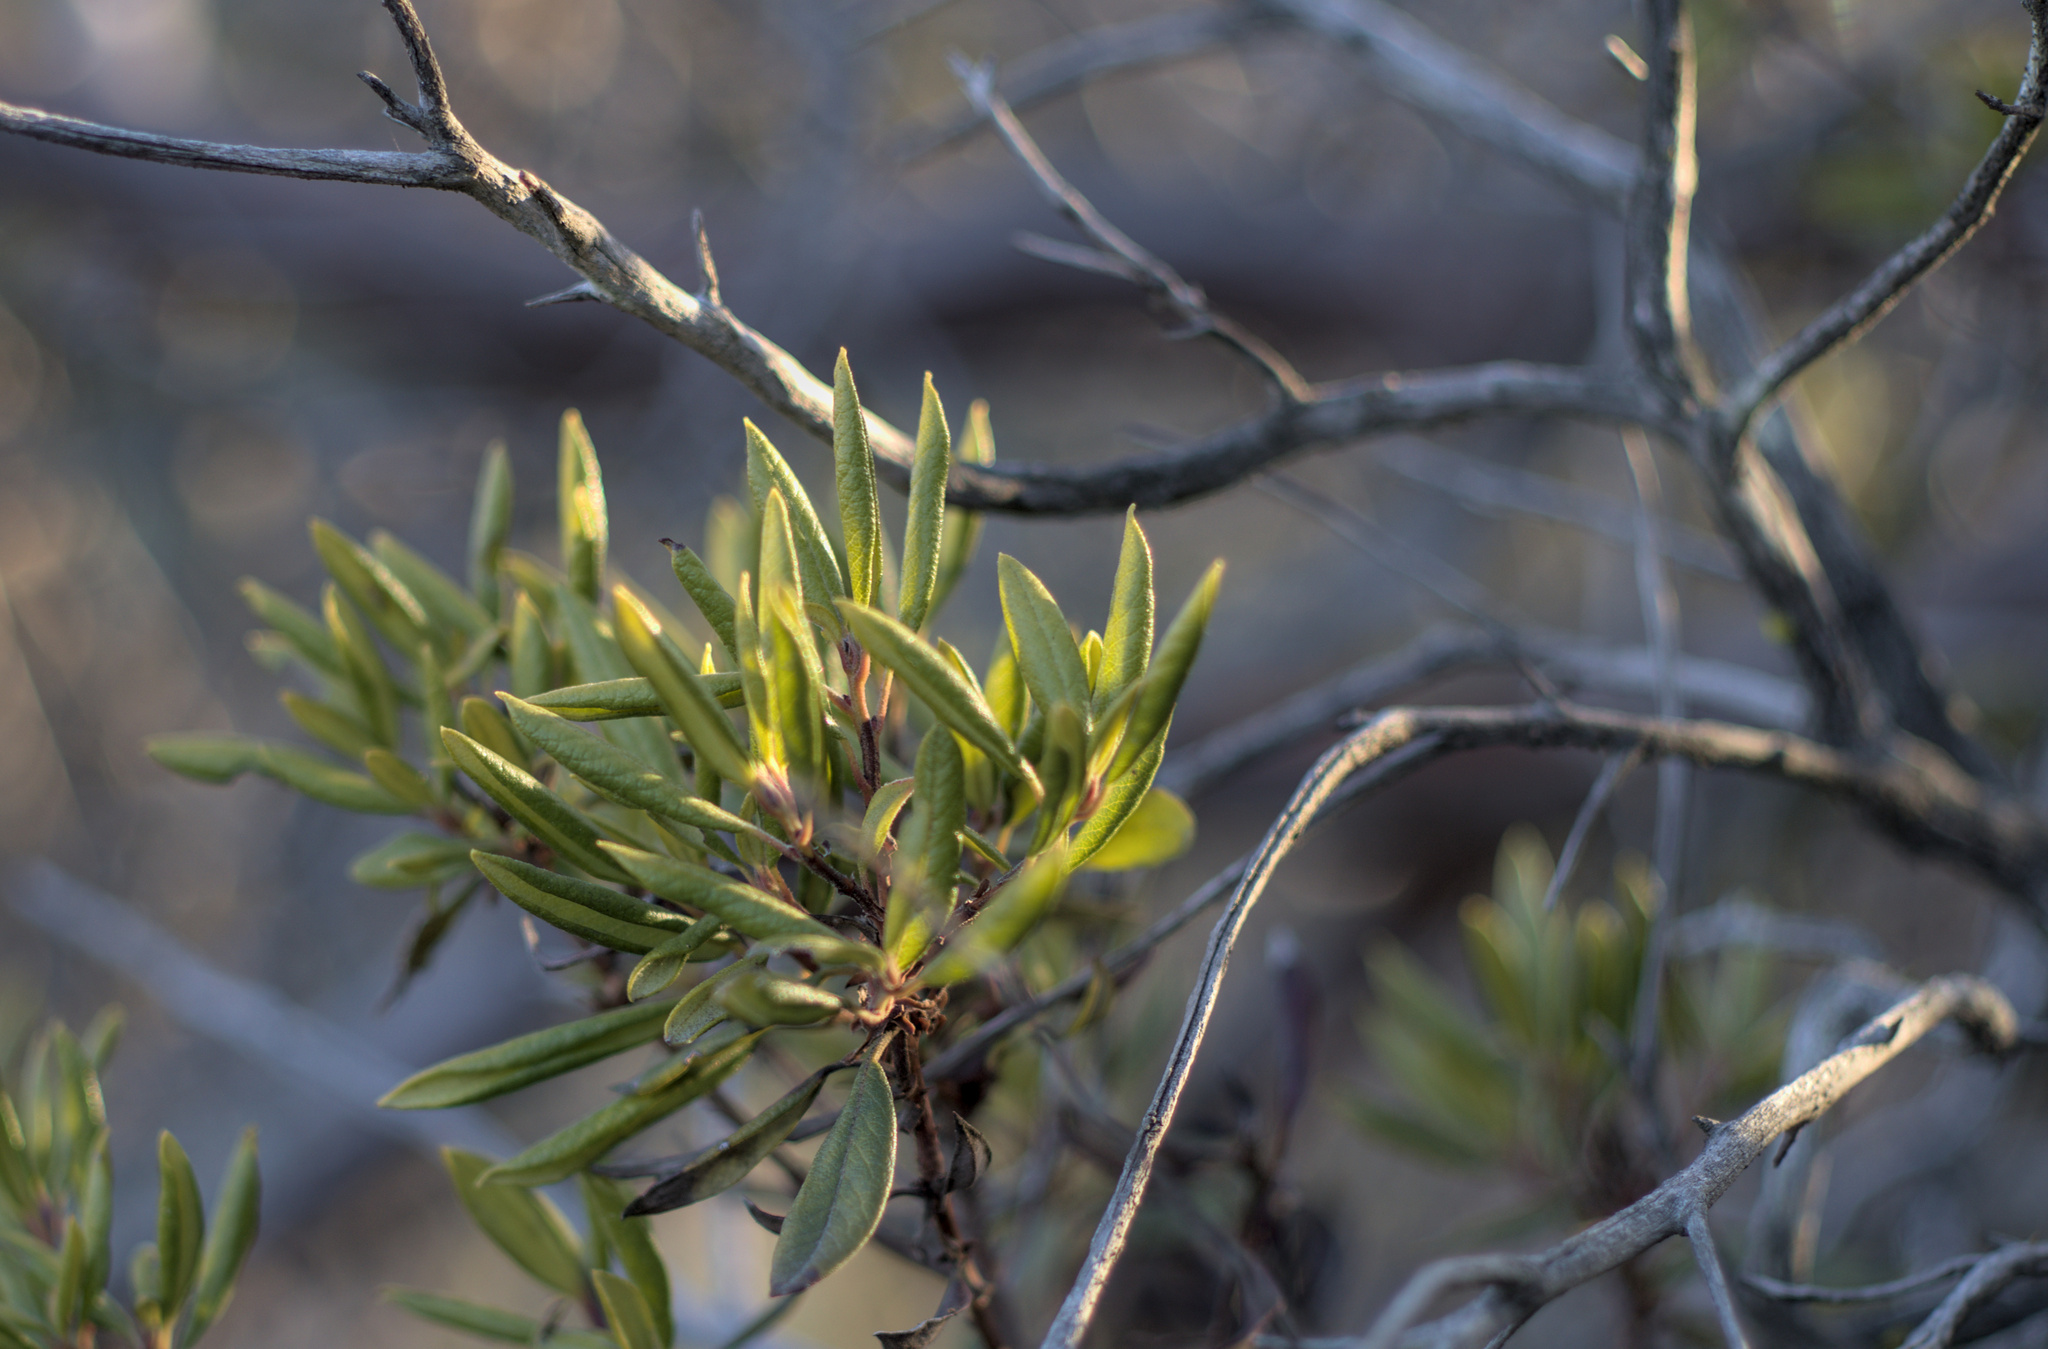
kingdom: Plantae
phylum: Tracheophyta
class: Magnoliopsida
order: Ericales
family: Ericaceae
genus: Arctostaphylos
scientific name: Arctostaphylos bicolor
